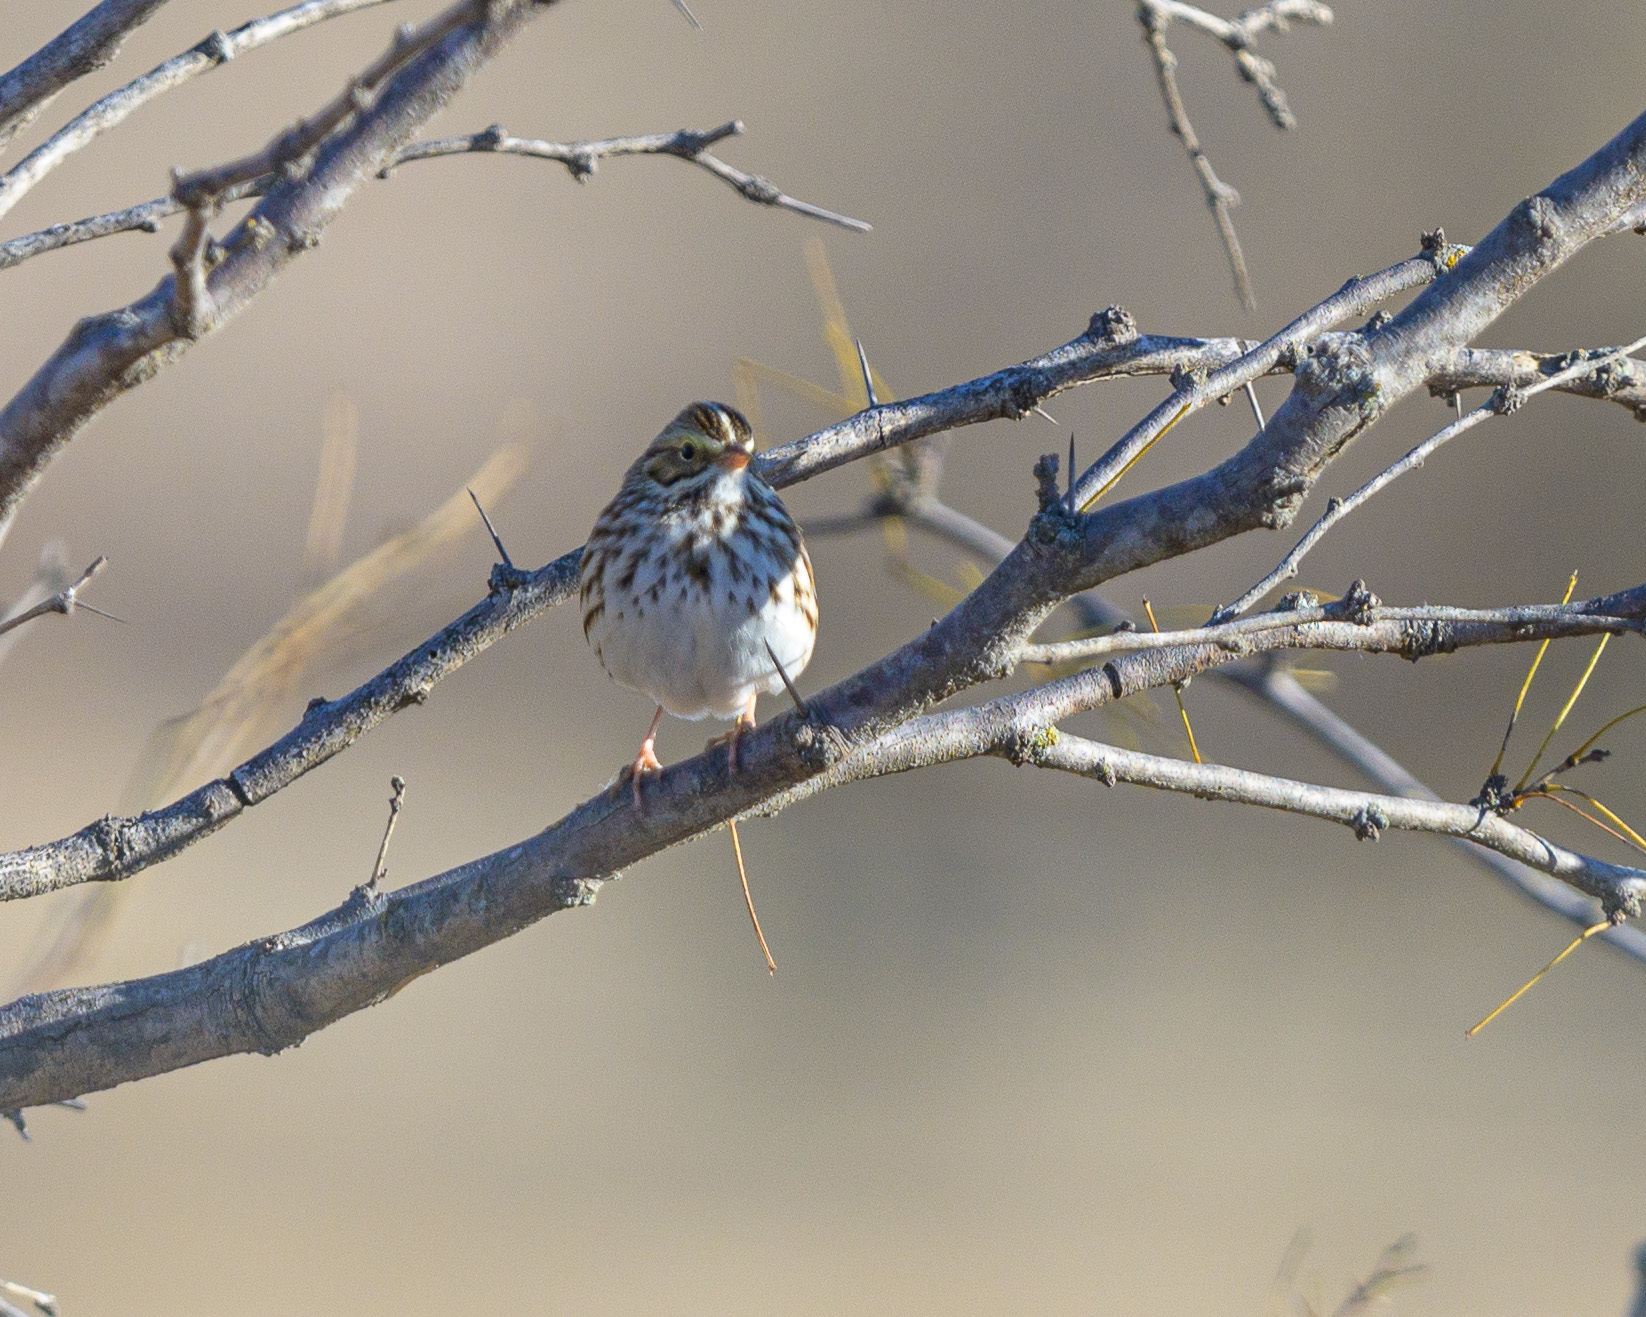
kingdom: Animalia
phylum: Chordata
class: Aves
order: Passeriformes
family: Passerellidae
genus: Passerculus
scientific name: Passerculus sandwichensis
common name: Savannah sparrow
